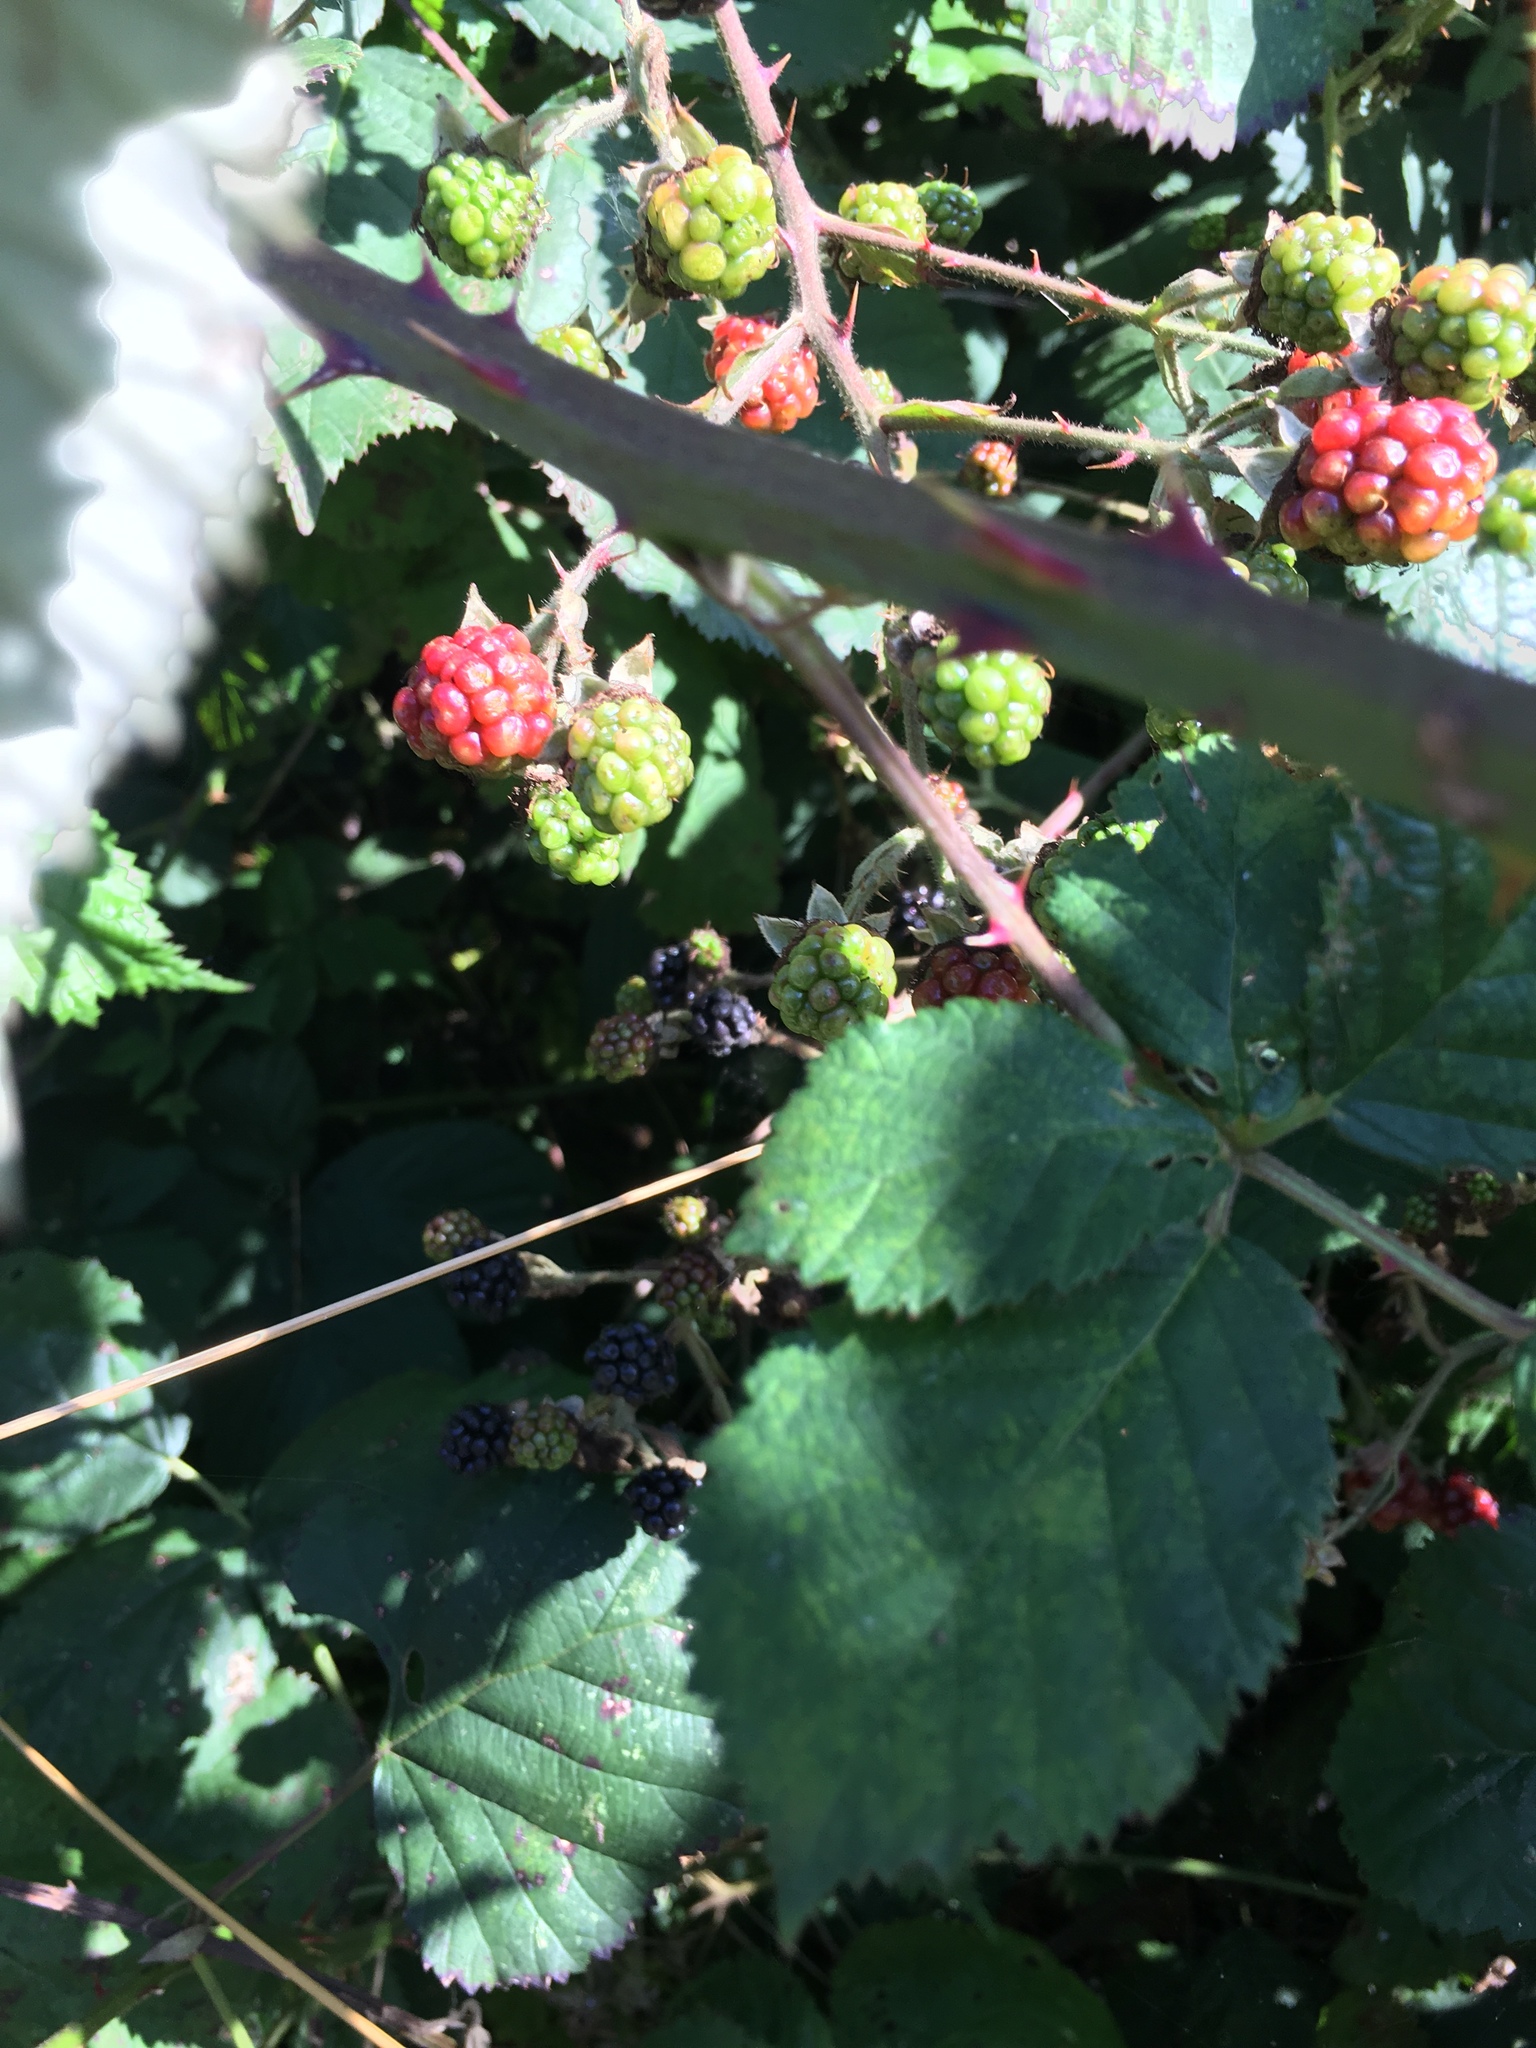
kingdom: Plantae
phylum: Tracheophyta
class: Magnoliopsida
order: Rosales
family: Rosaceae
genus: Rubus
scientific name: Rubus armeniacus
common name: Himalayan blackberry
